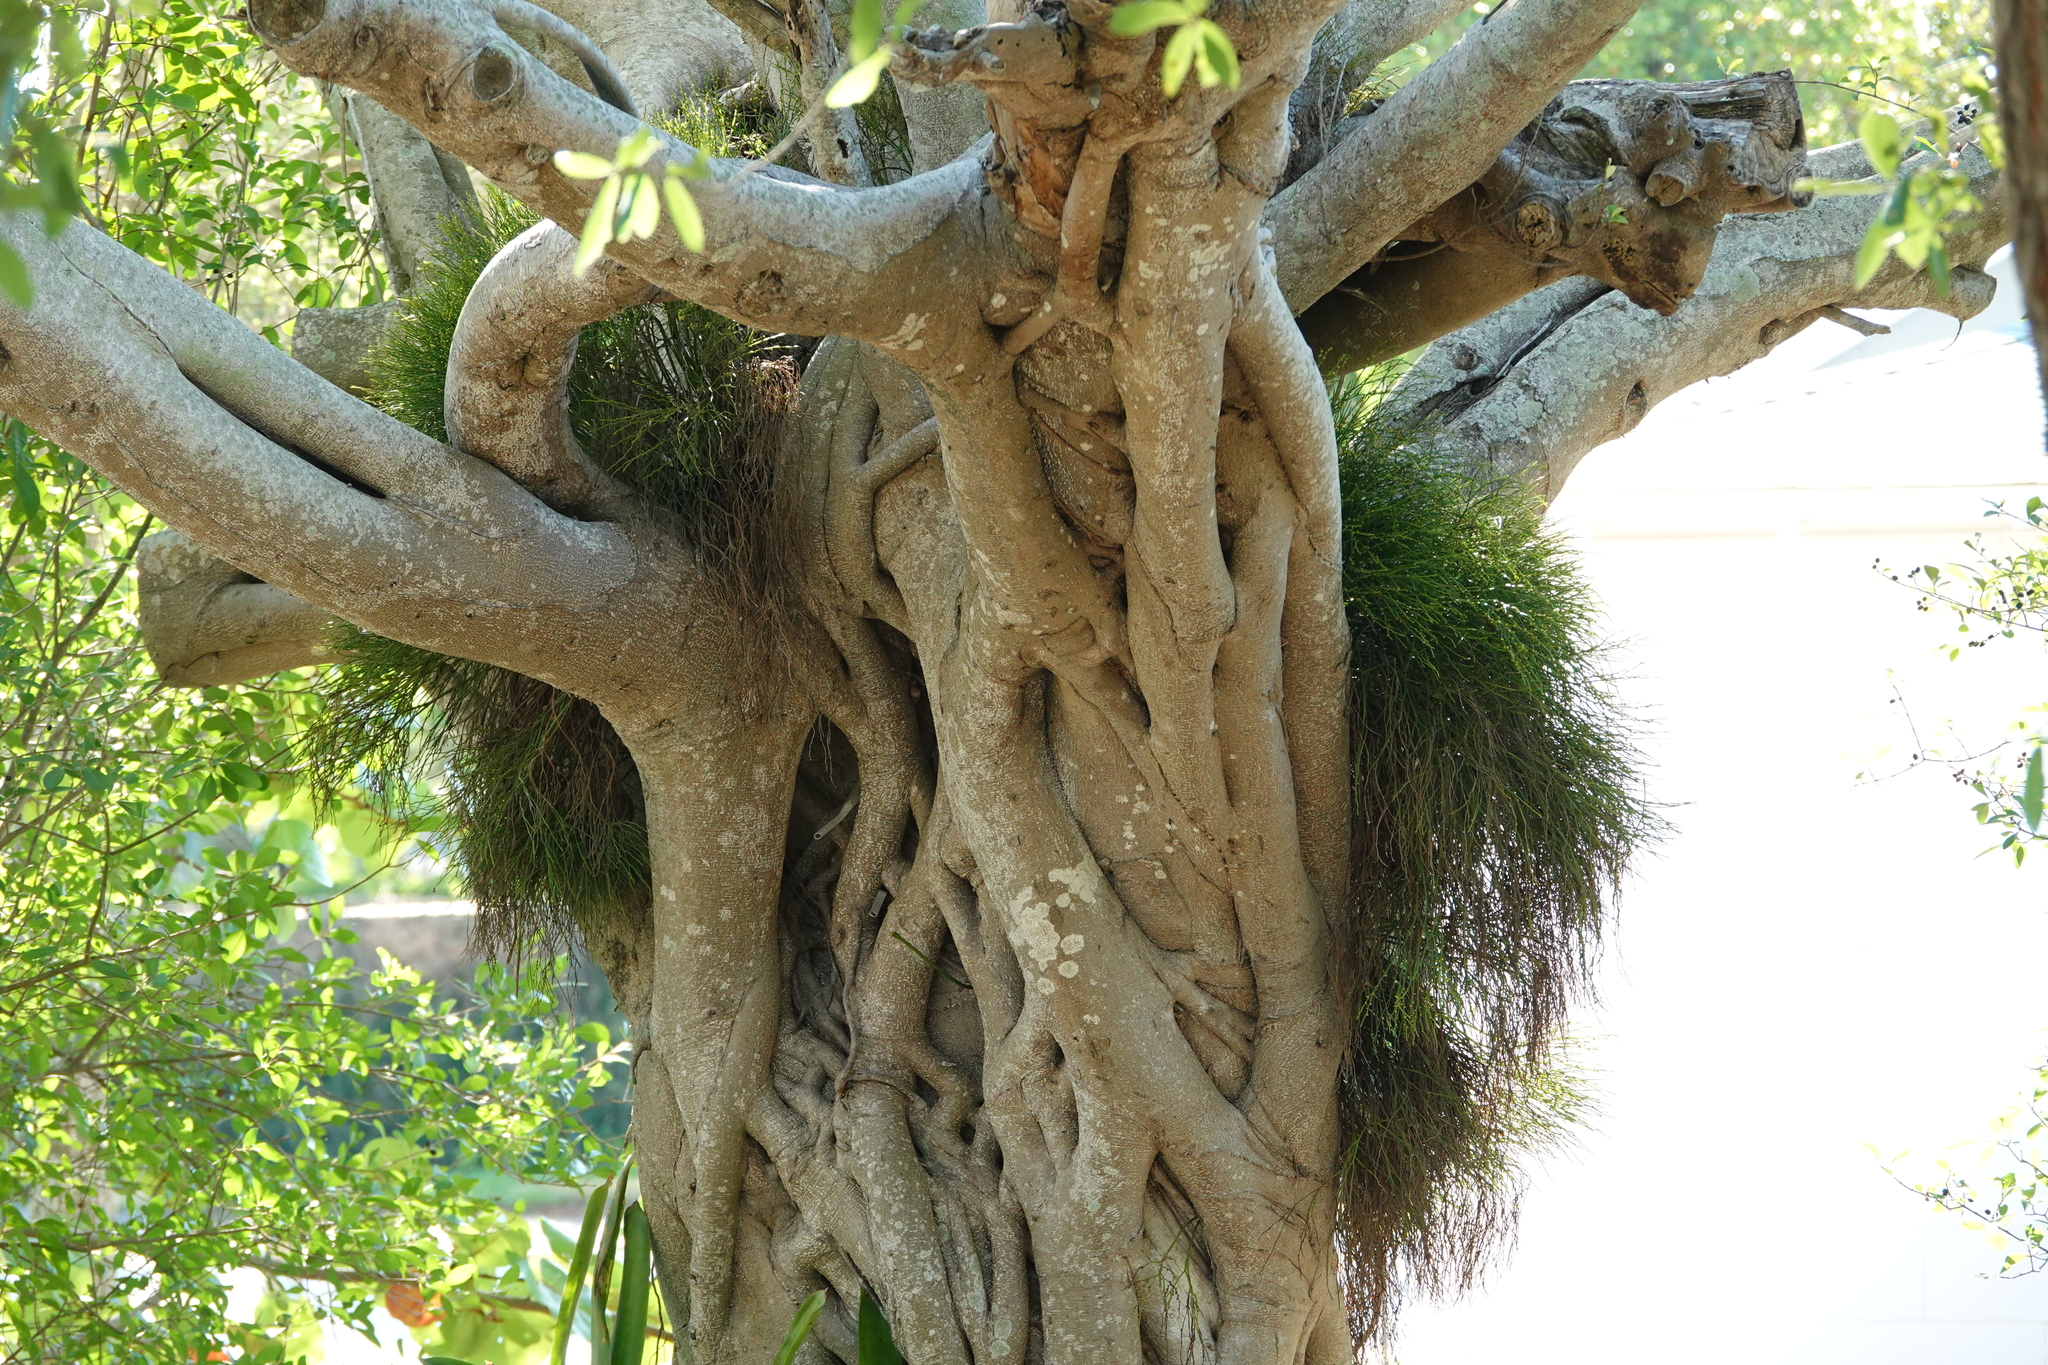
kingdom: Plantae
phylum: Tracheophyta
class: Polypodiopsida
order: Psilotales
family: Psilotaceae
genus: Psilotum
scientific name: Psilotum nudum
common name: Skeleton fork fern
